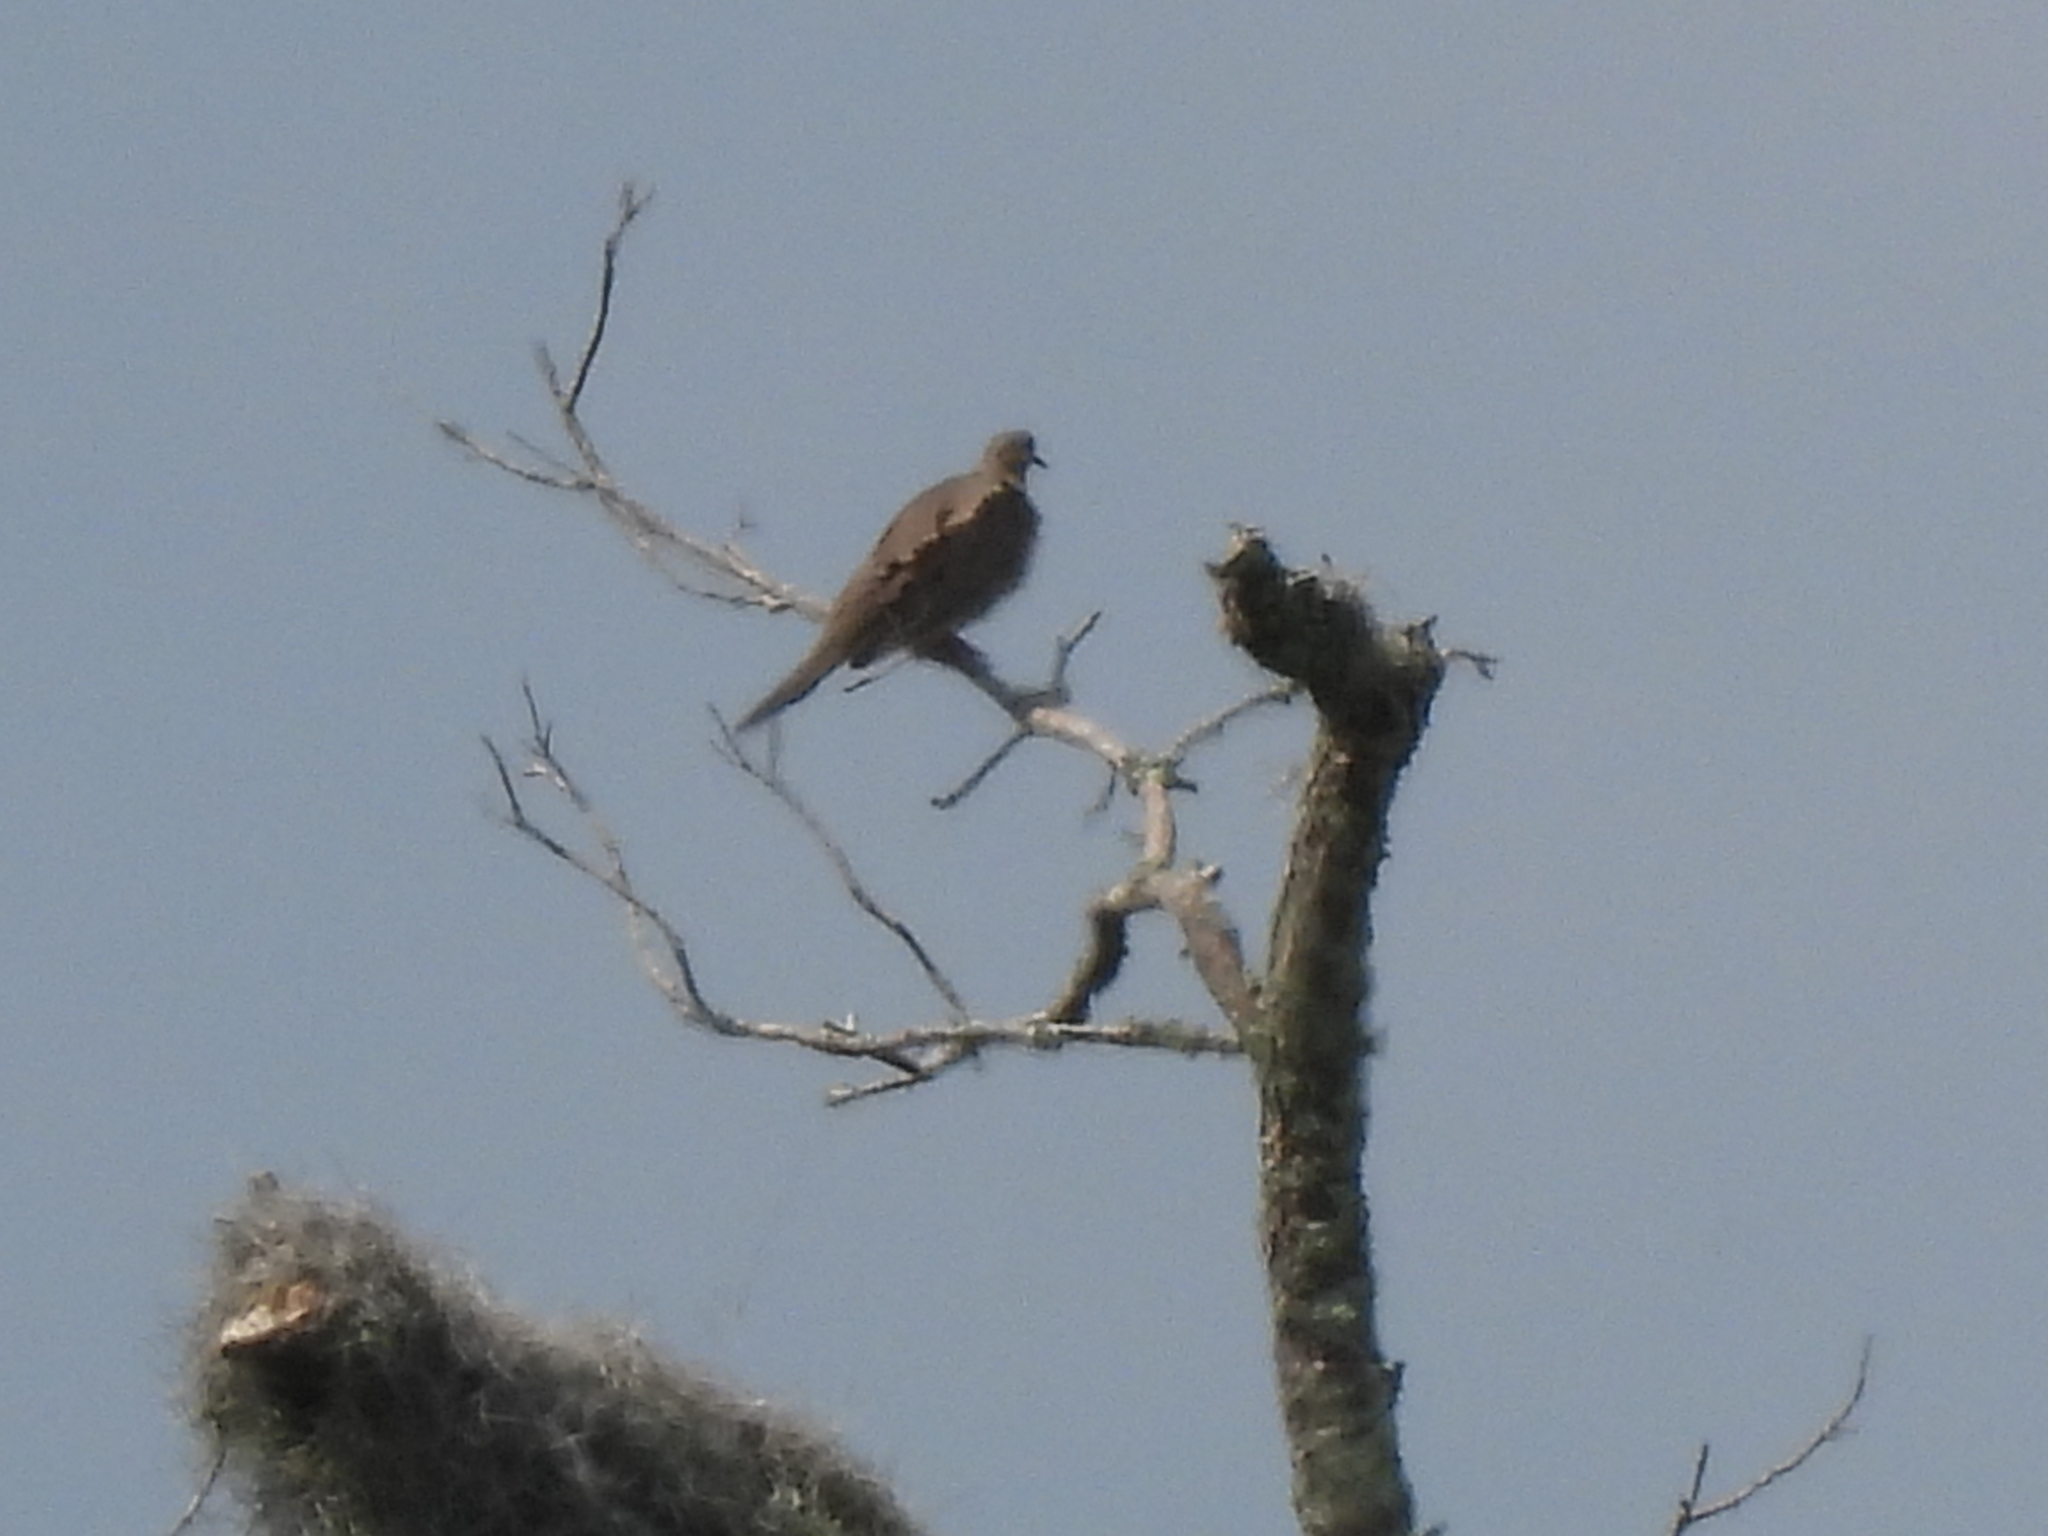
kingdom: Animalia
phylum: Chordata
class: Aves
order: Columbiformes
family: Columbidae
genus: Zenaida
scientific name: Zenaida macroura
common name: Mourning dove
